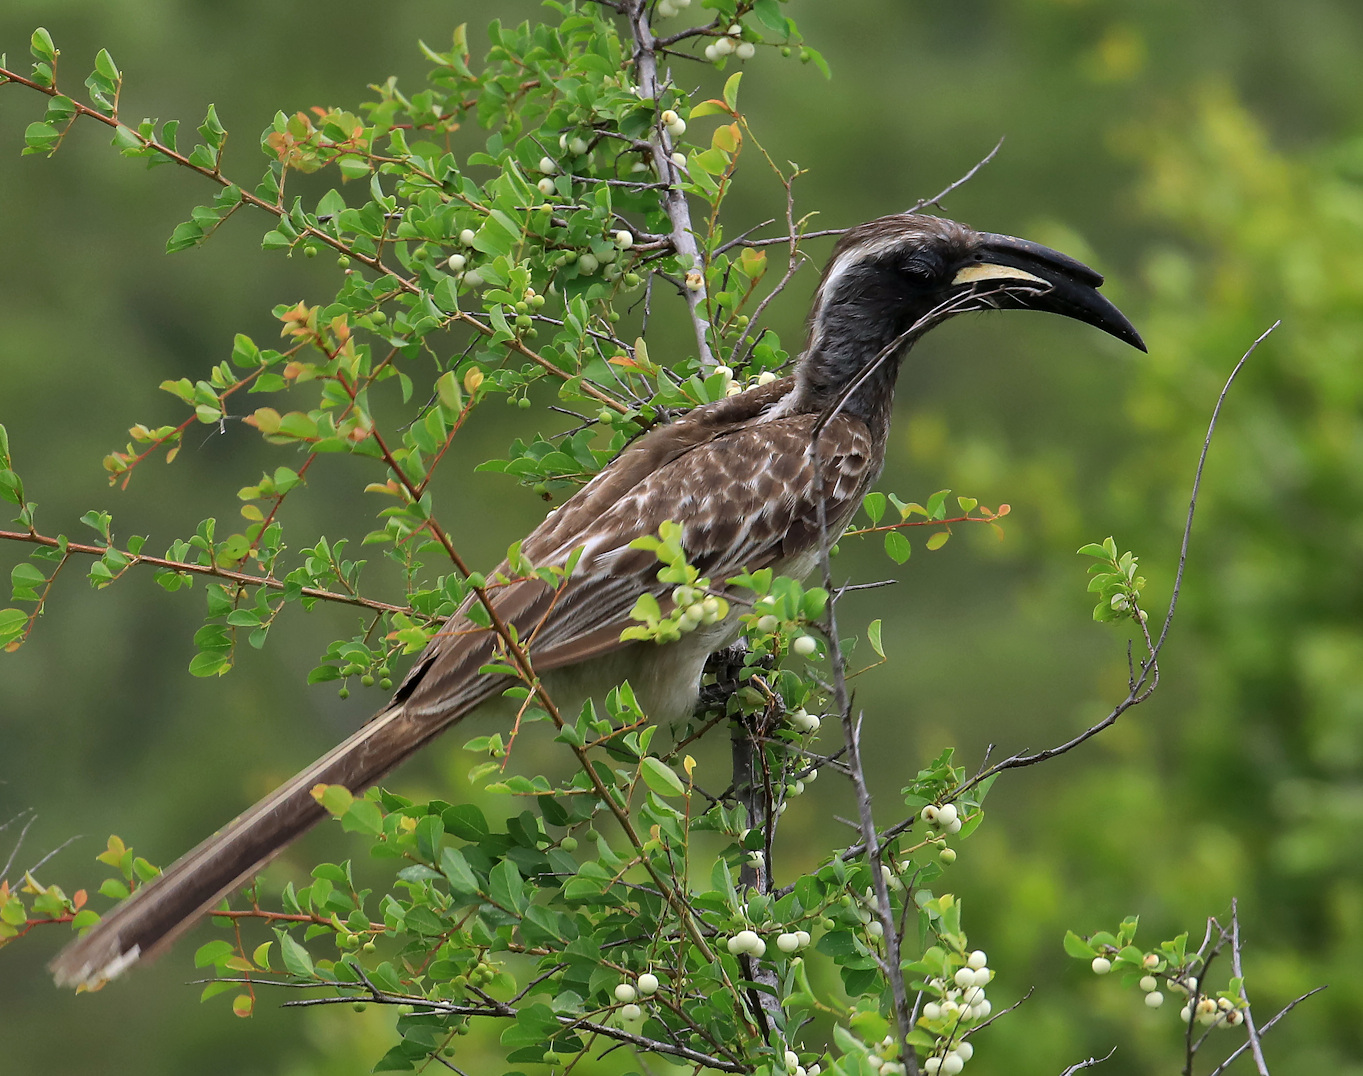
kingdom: Animalia
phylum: Chordata
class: Aves
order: Bucerotiformes
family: Bucerotidae
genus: Lophoceros
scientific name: Lophoceros nasutus
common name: African grey hornbill
